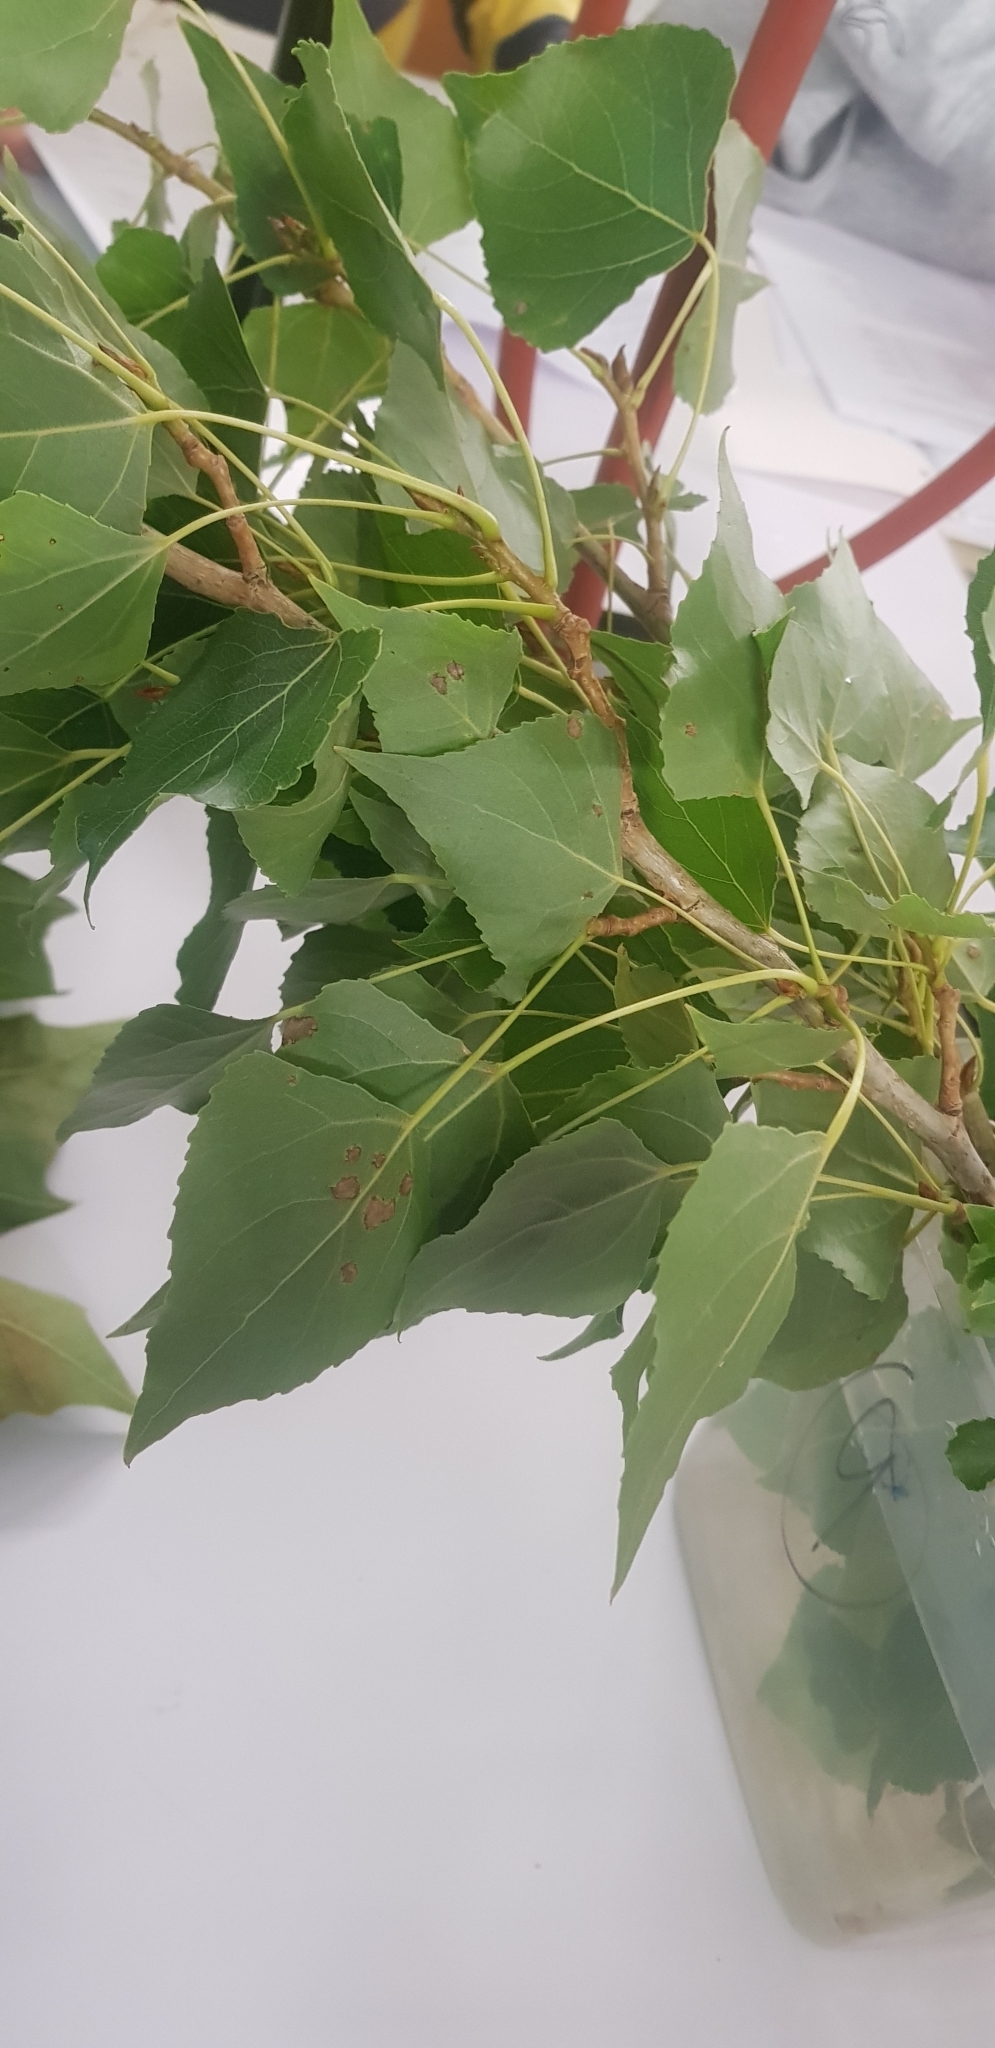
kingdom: Plantae
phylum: Tracheophyta
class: Magnoliopsida
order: Malpighiales
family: Salicaceae
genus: Populus
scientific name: Populus nigra
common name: Black poplar
